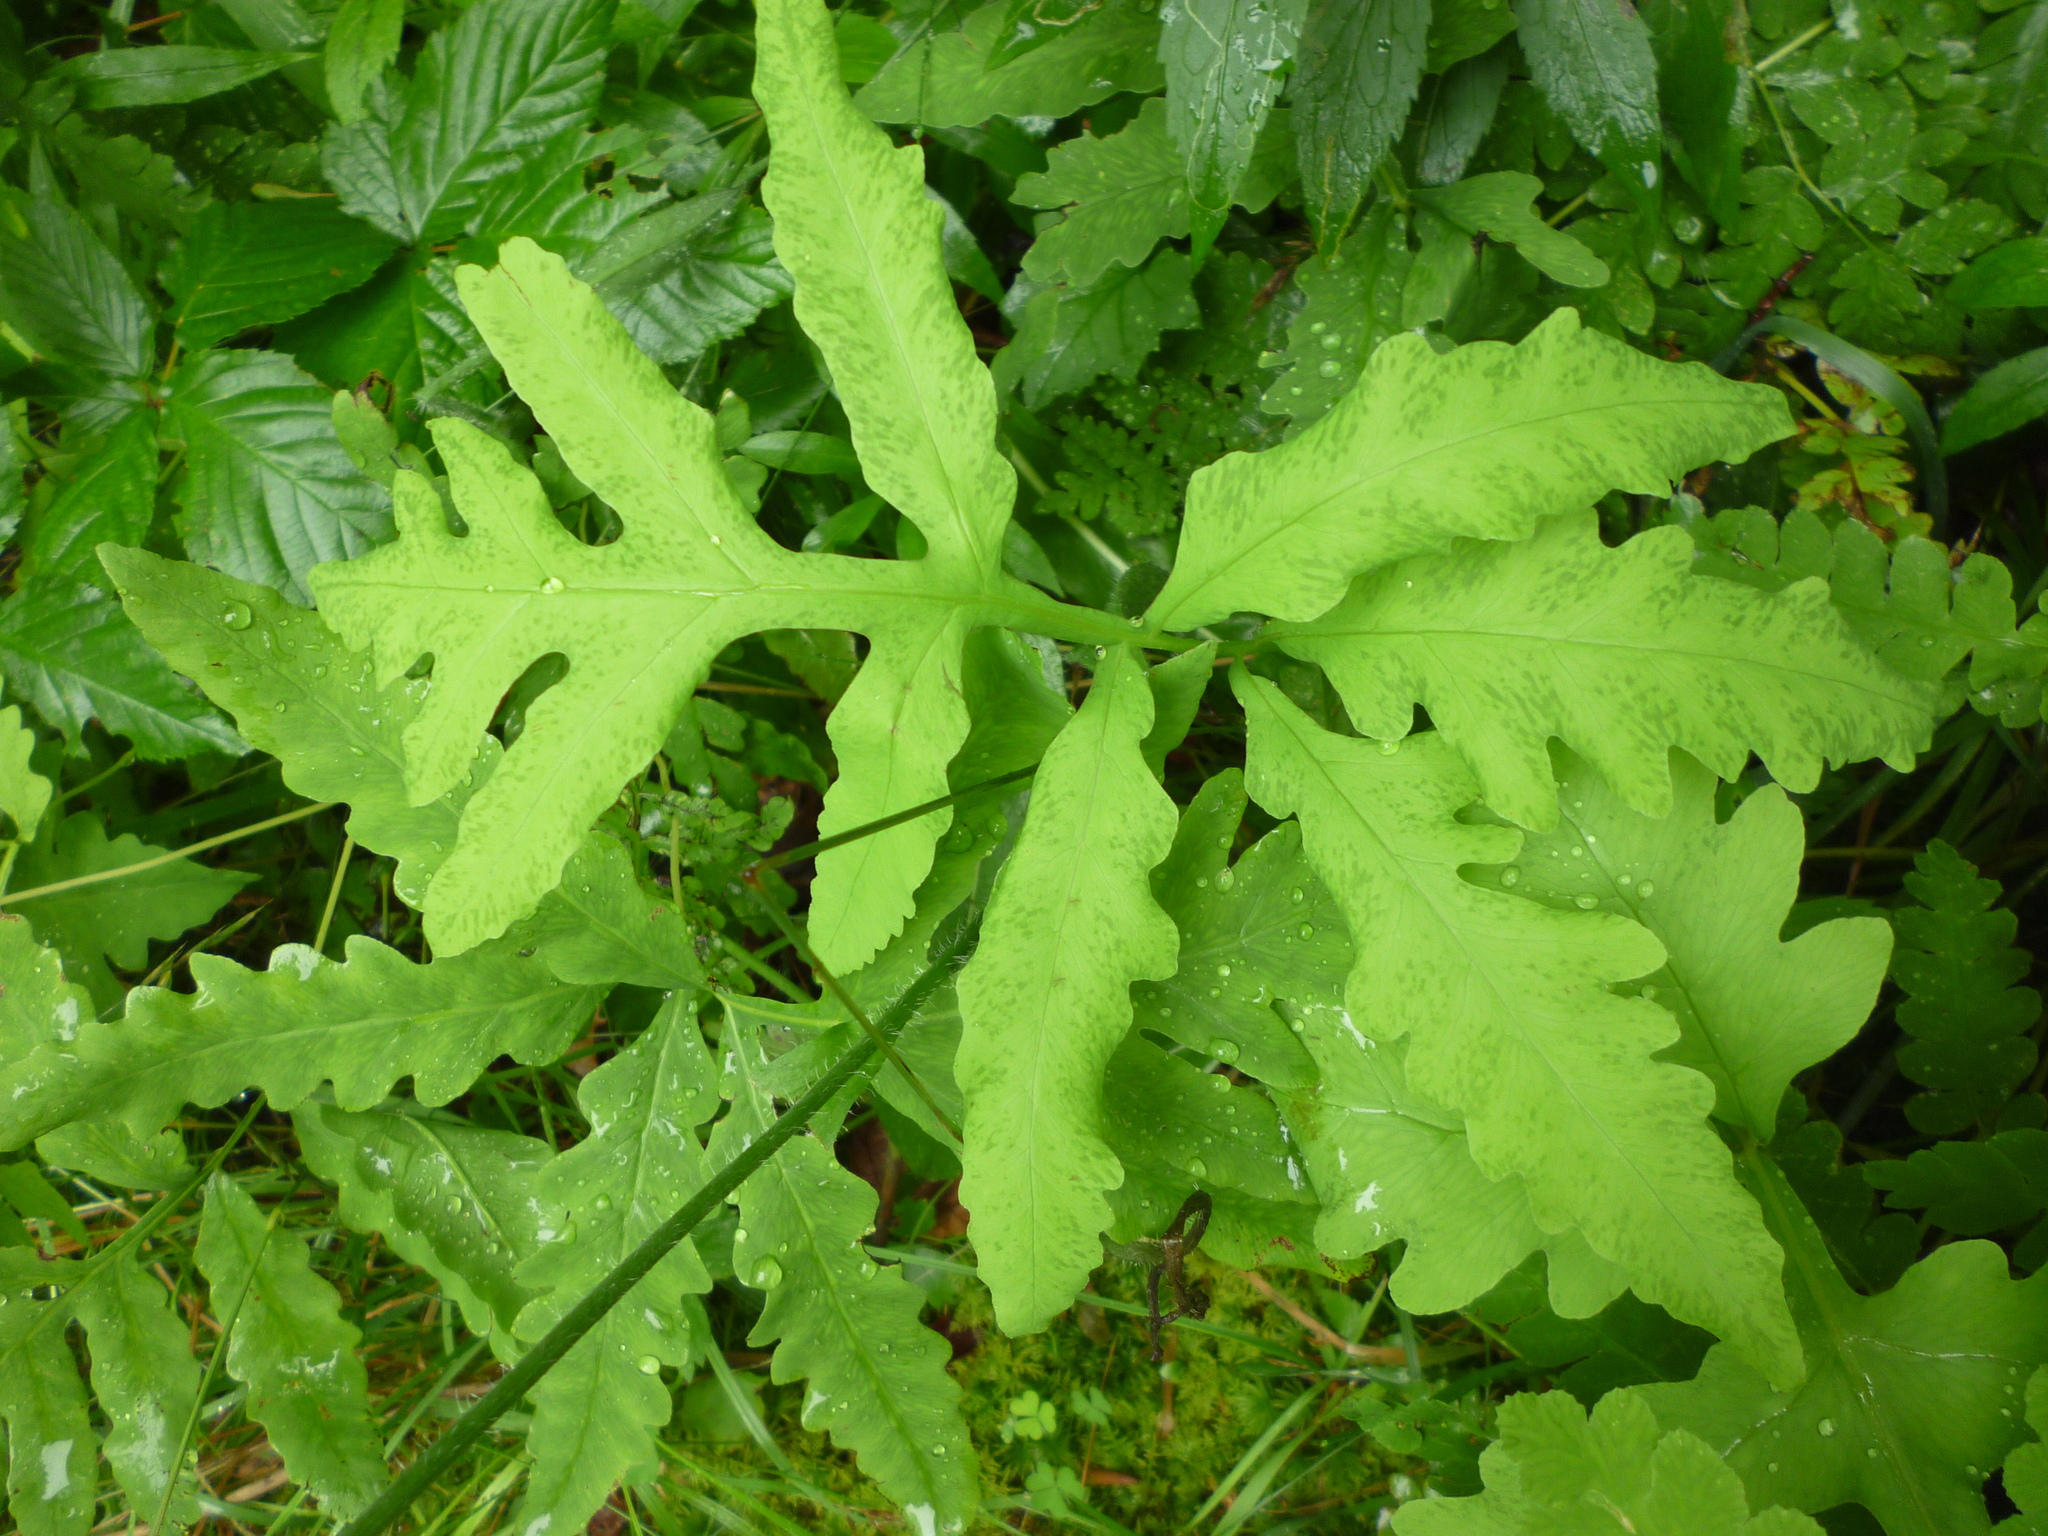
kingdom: Plantae
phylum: Tracheophyta
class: Polypodiopsida
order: Polypodiales
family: Onocleaceae
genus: Onoclea
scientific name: Onoclea sensibilis
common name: Sensitive fern
